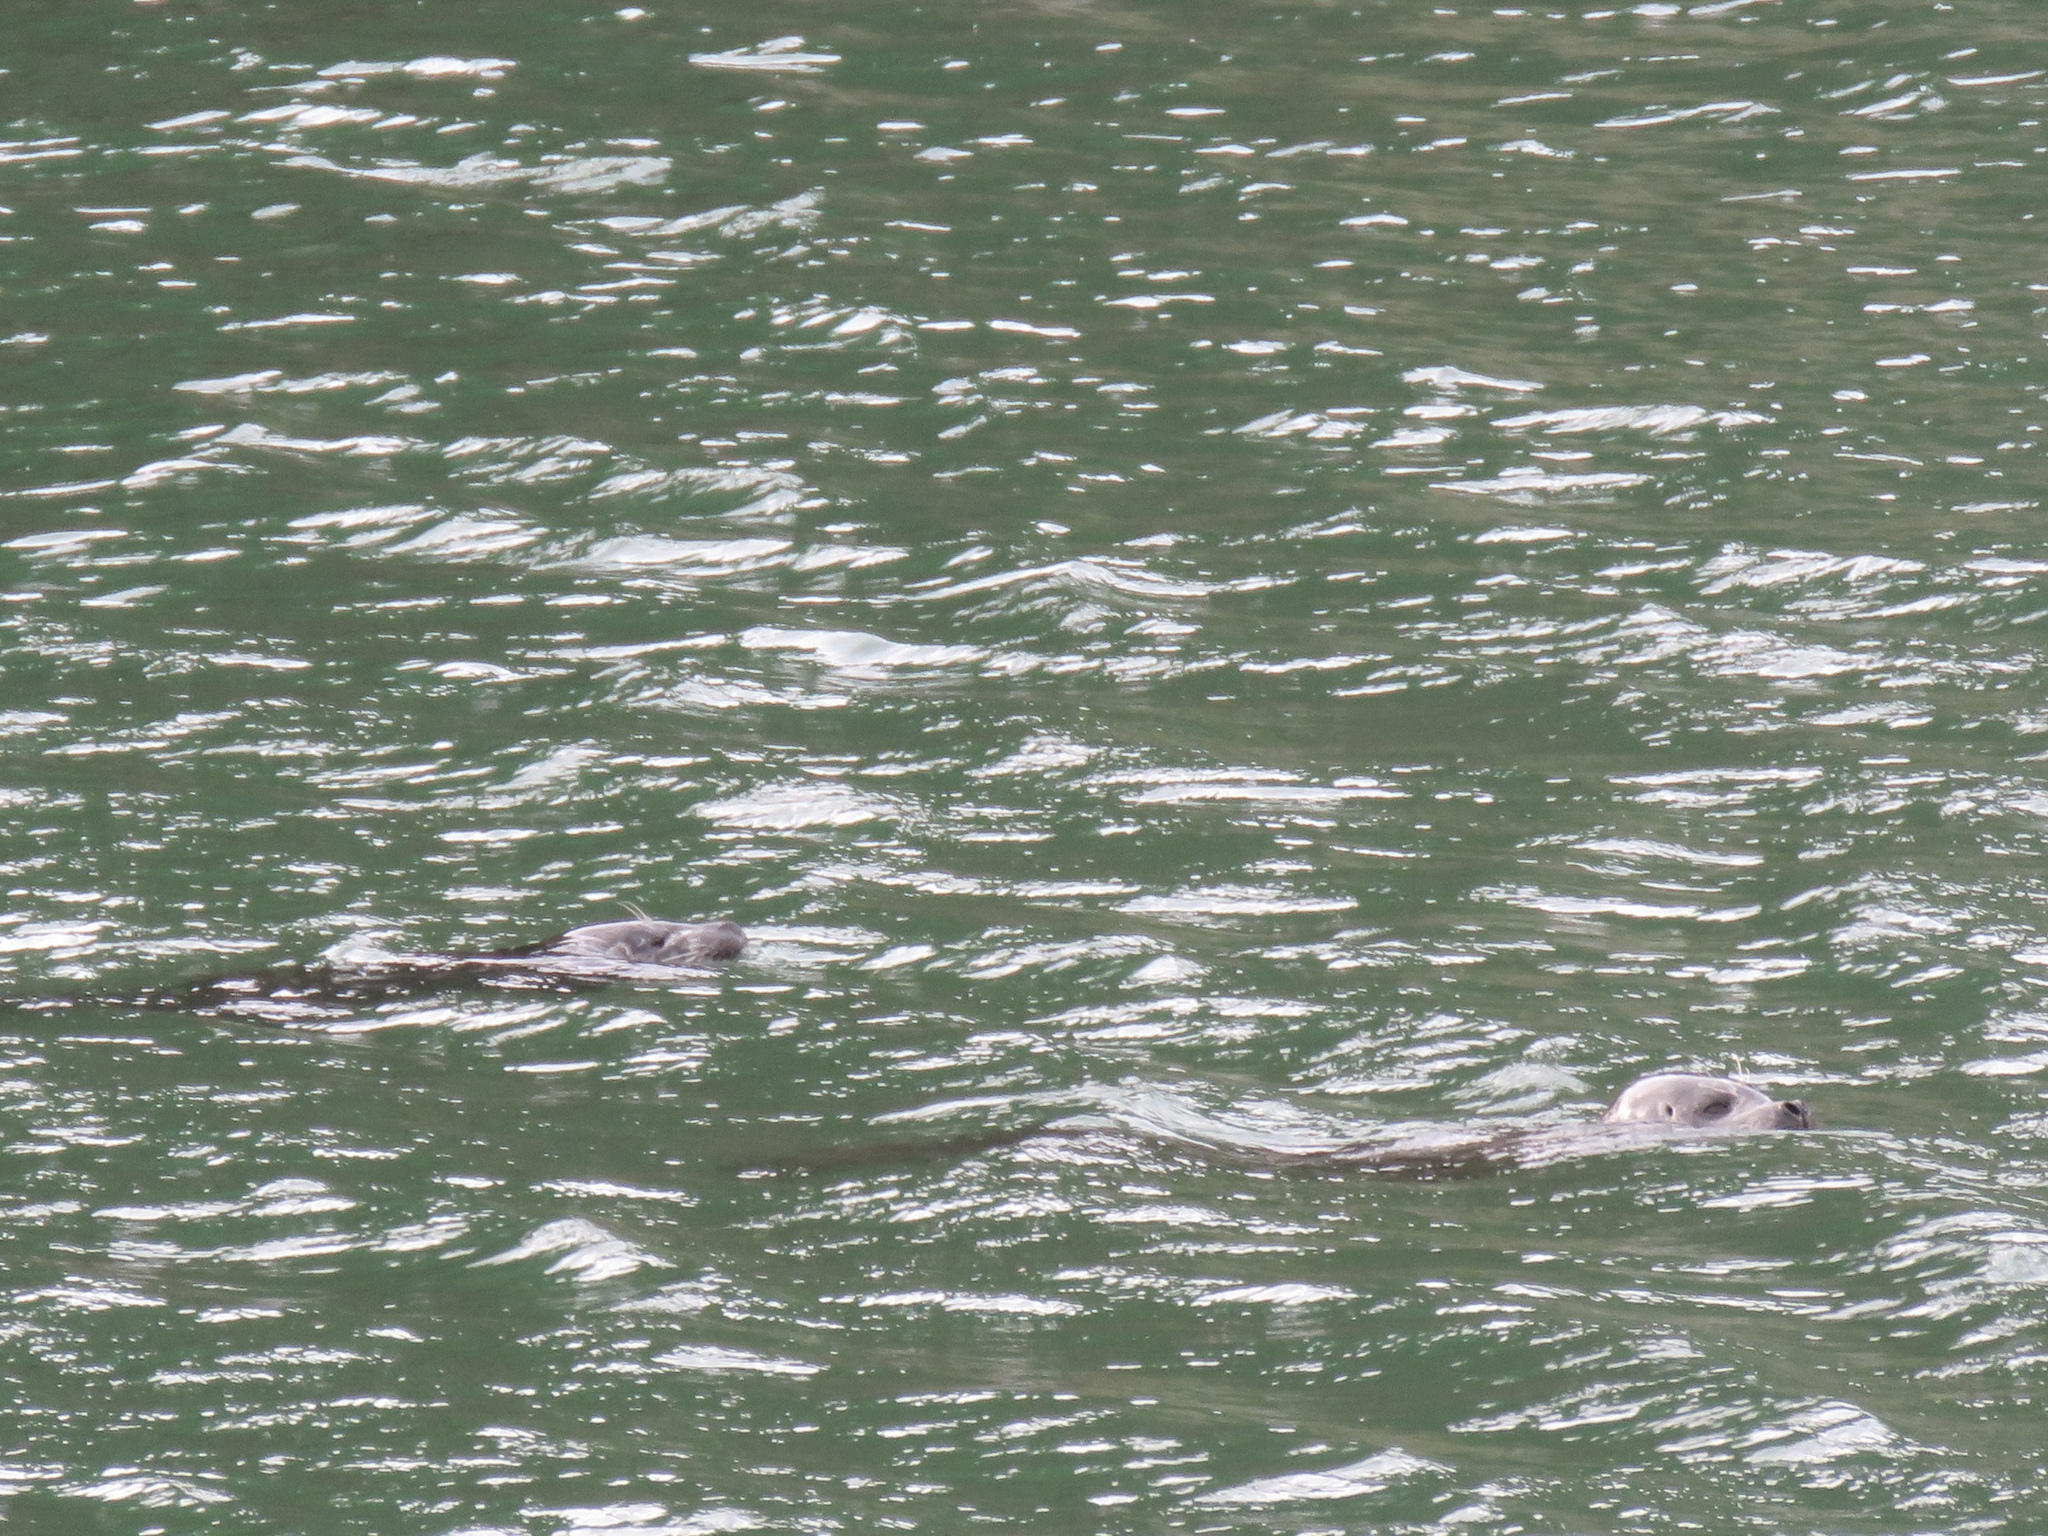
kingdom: Animalia
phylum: Chordata
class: Mammalia
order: Carnivora
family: Phocidae
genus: Phoca
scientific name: Phoca vitulina
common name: Harbor seal
